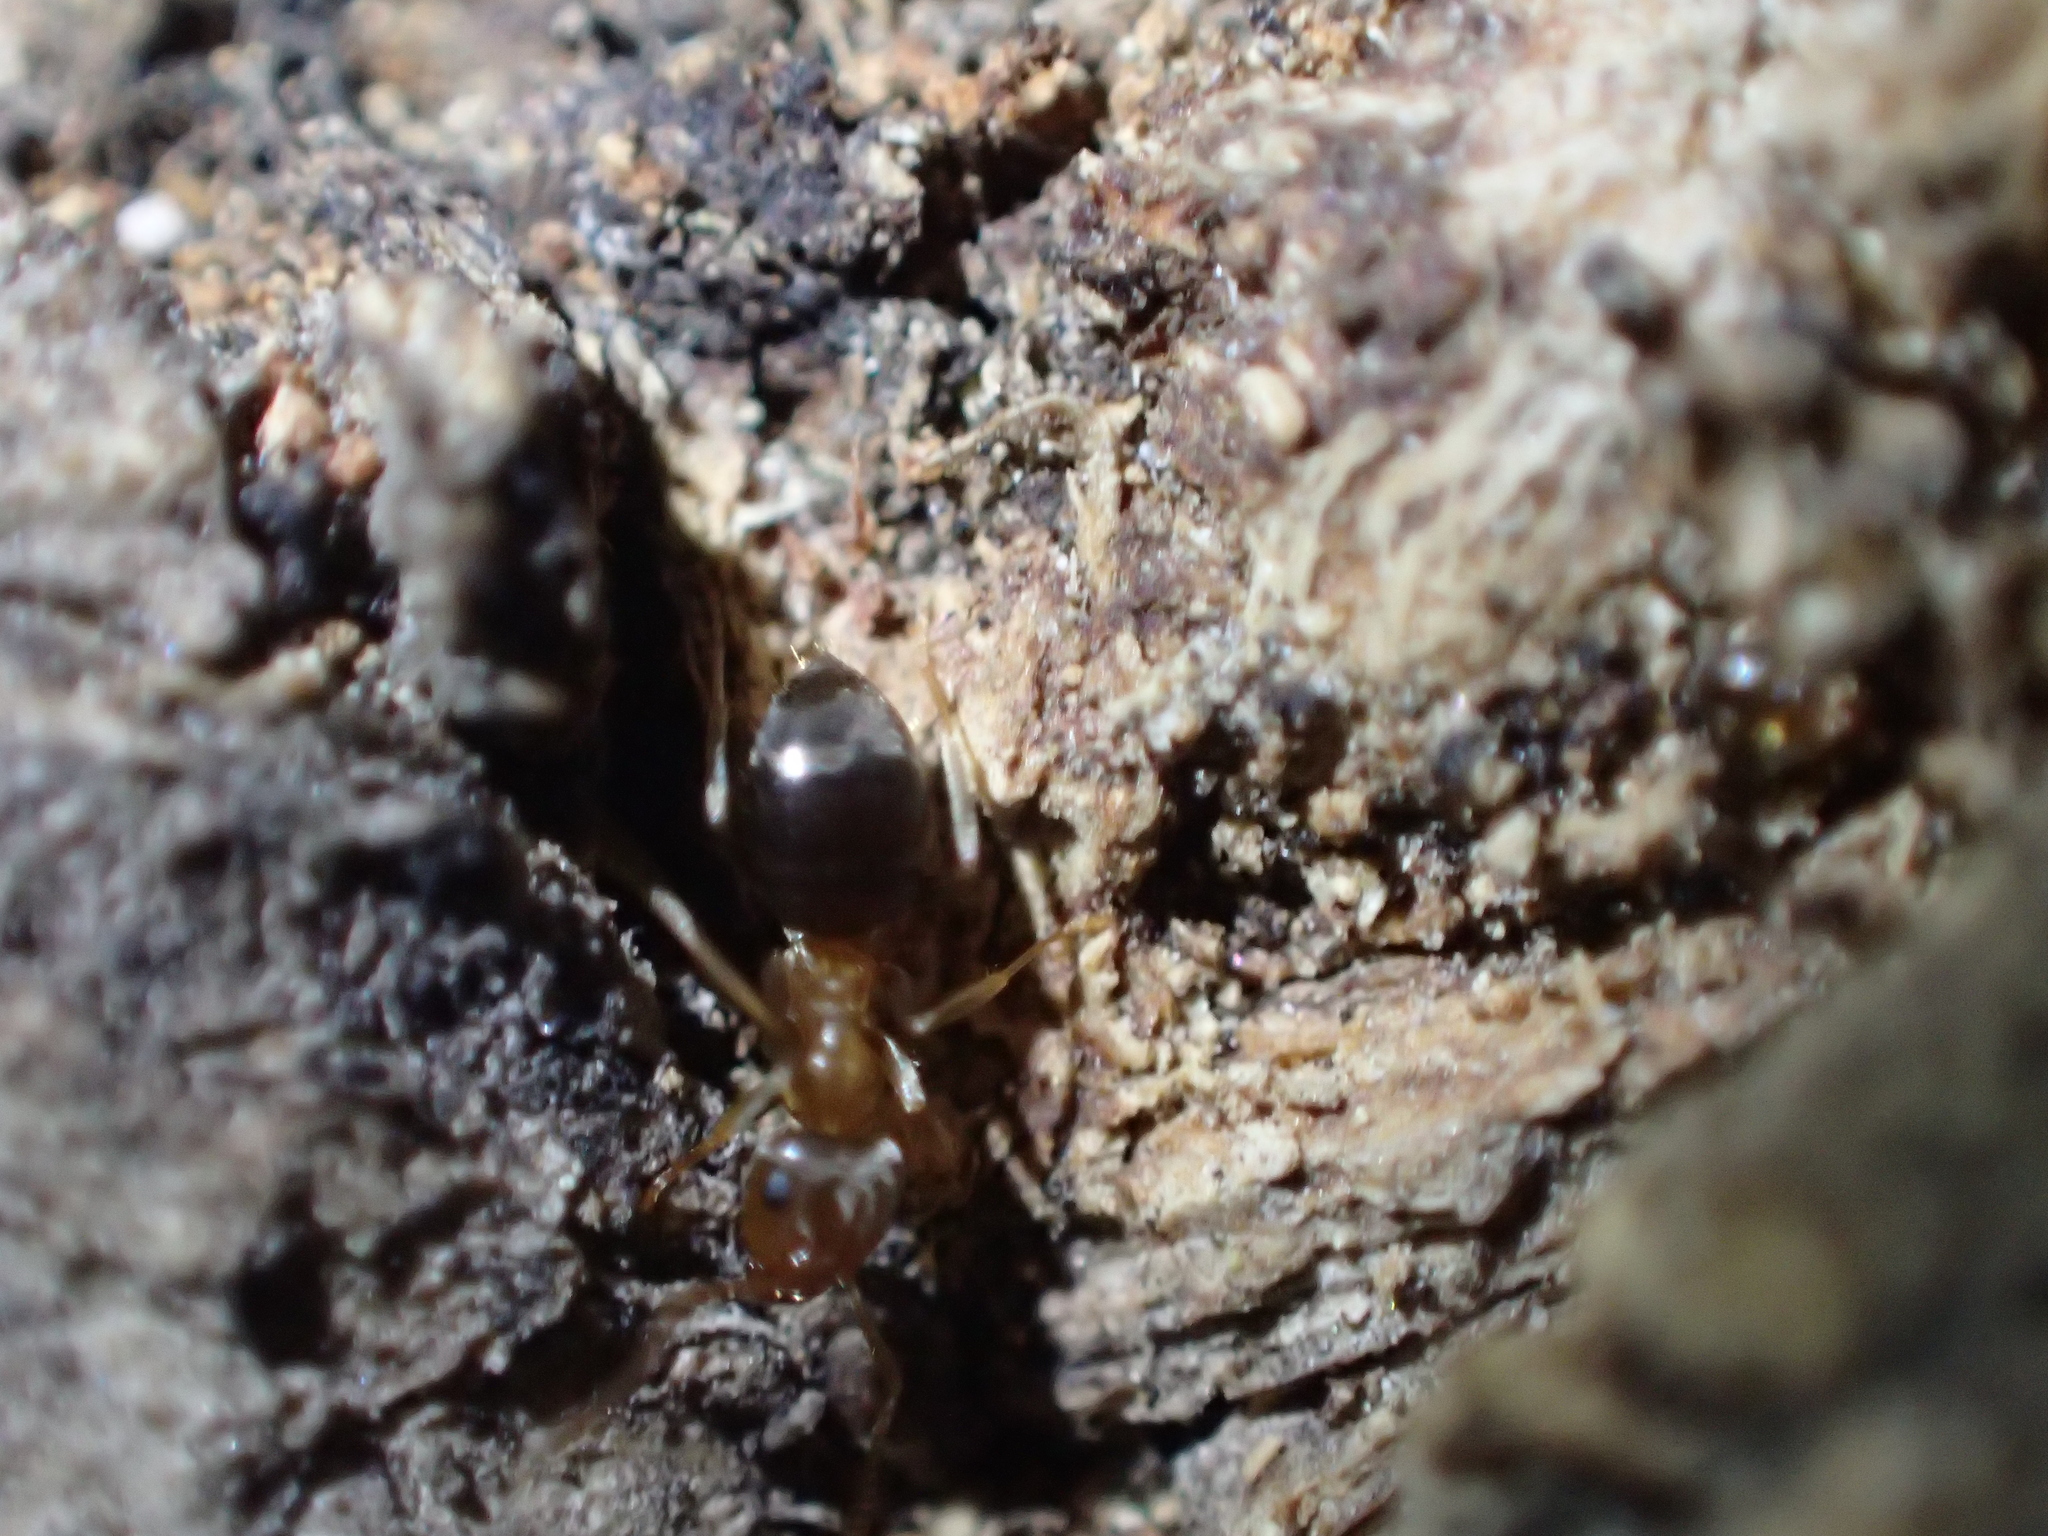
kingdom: Animalia
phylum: Arthropoda
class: Insecta
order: Hymenoptera
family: Formicidae
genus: Lasius
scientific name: Lasius brunneus
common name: Brown ant
